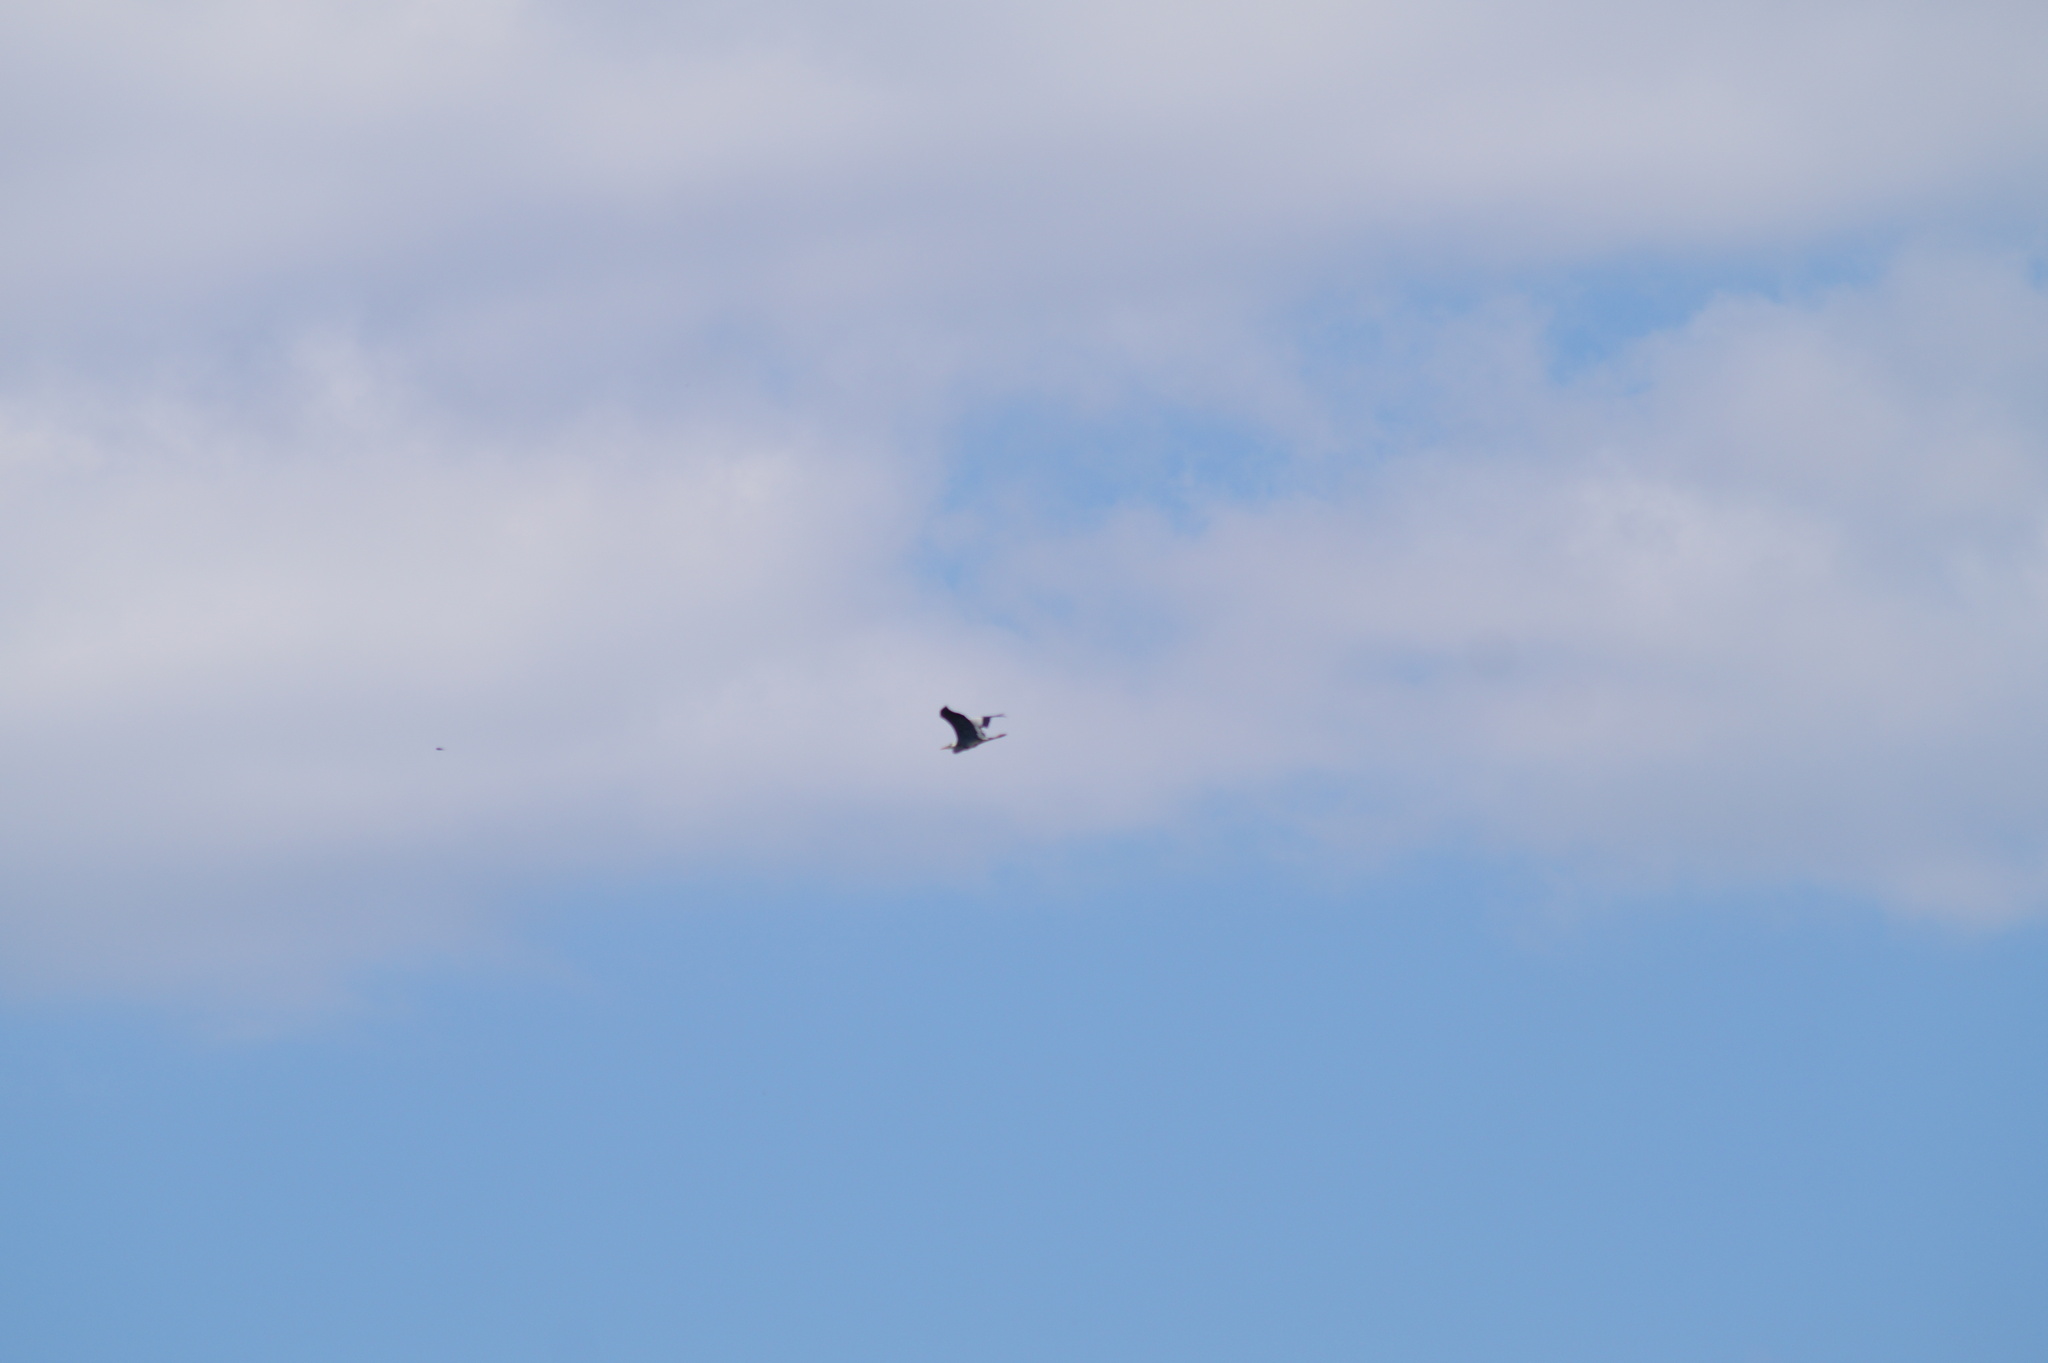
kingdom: Animalia
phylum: Chordata
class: Aves
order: Pelecaniformes
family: Ardeidae
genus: Ardea
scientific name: Ardea cinerea
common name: Grey heron
